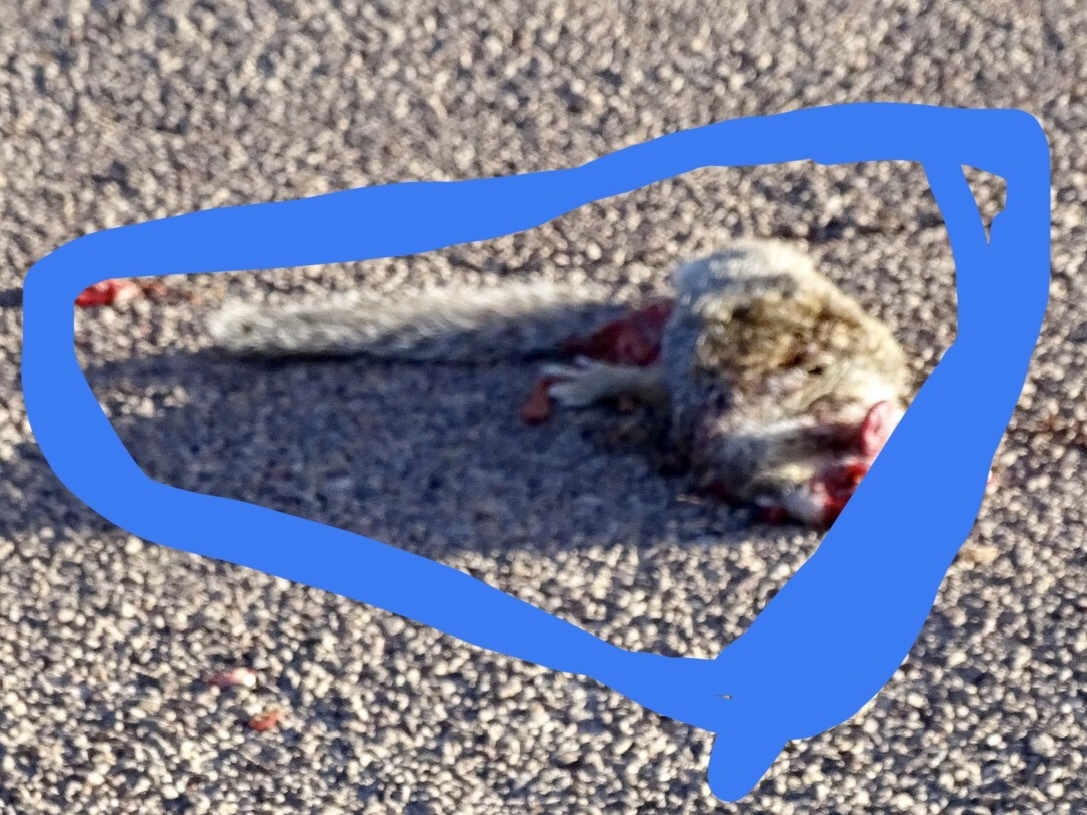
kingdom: Animalia
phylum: Chordata
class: Mammalia
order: Rodentia
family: Sciuridae
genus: Otospermophilus
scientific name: Otospermophilus variegatus
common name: Rock squirrel
